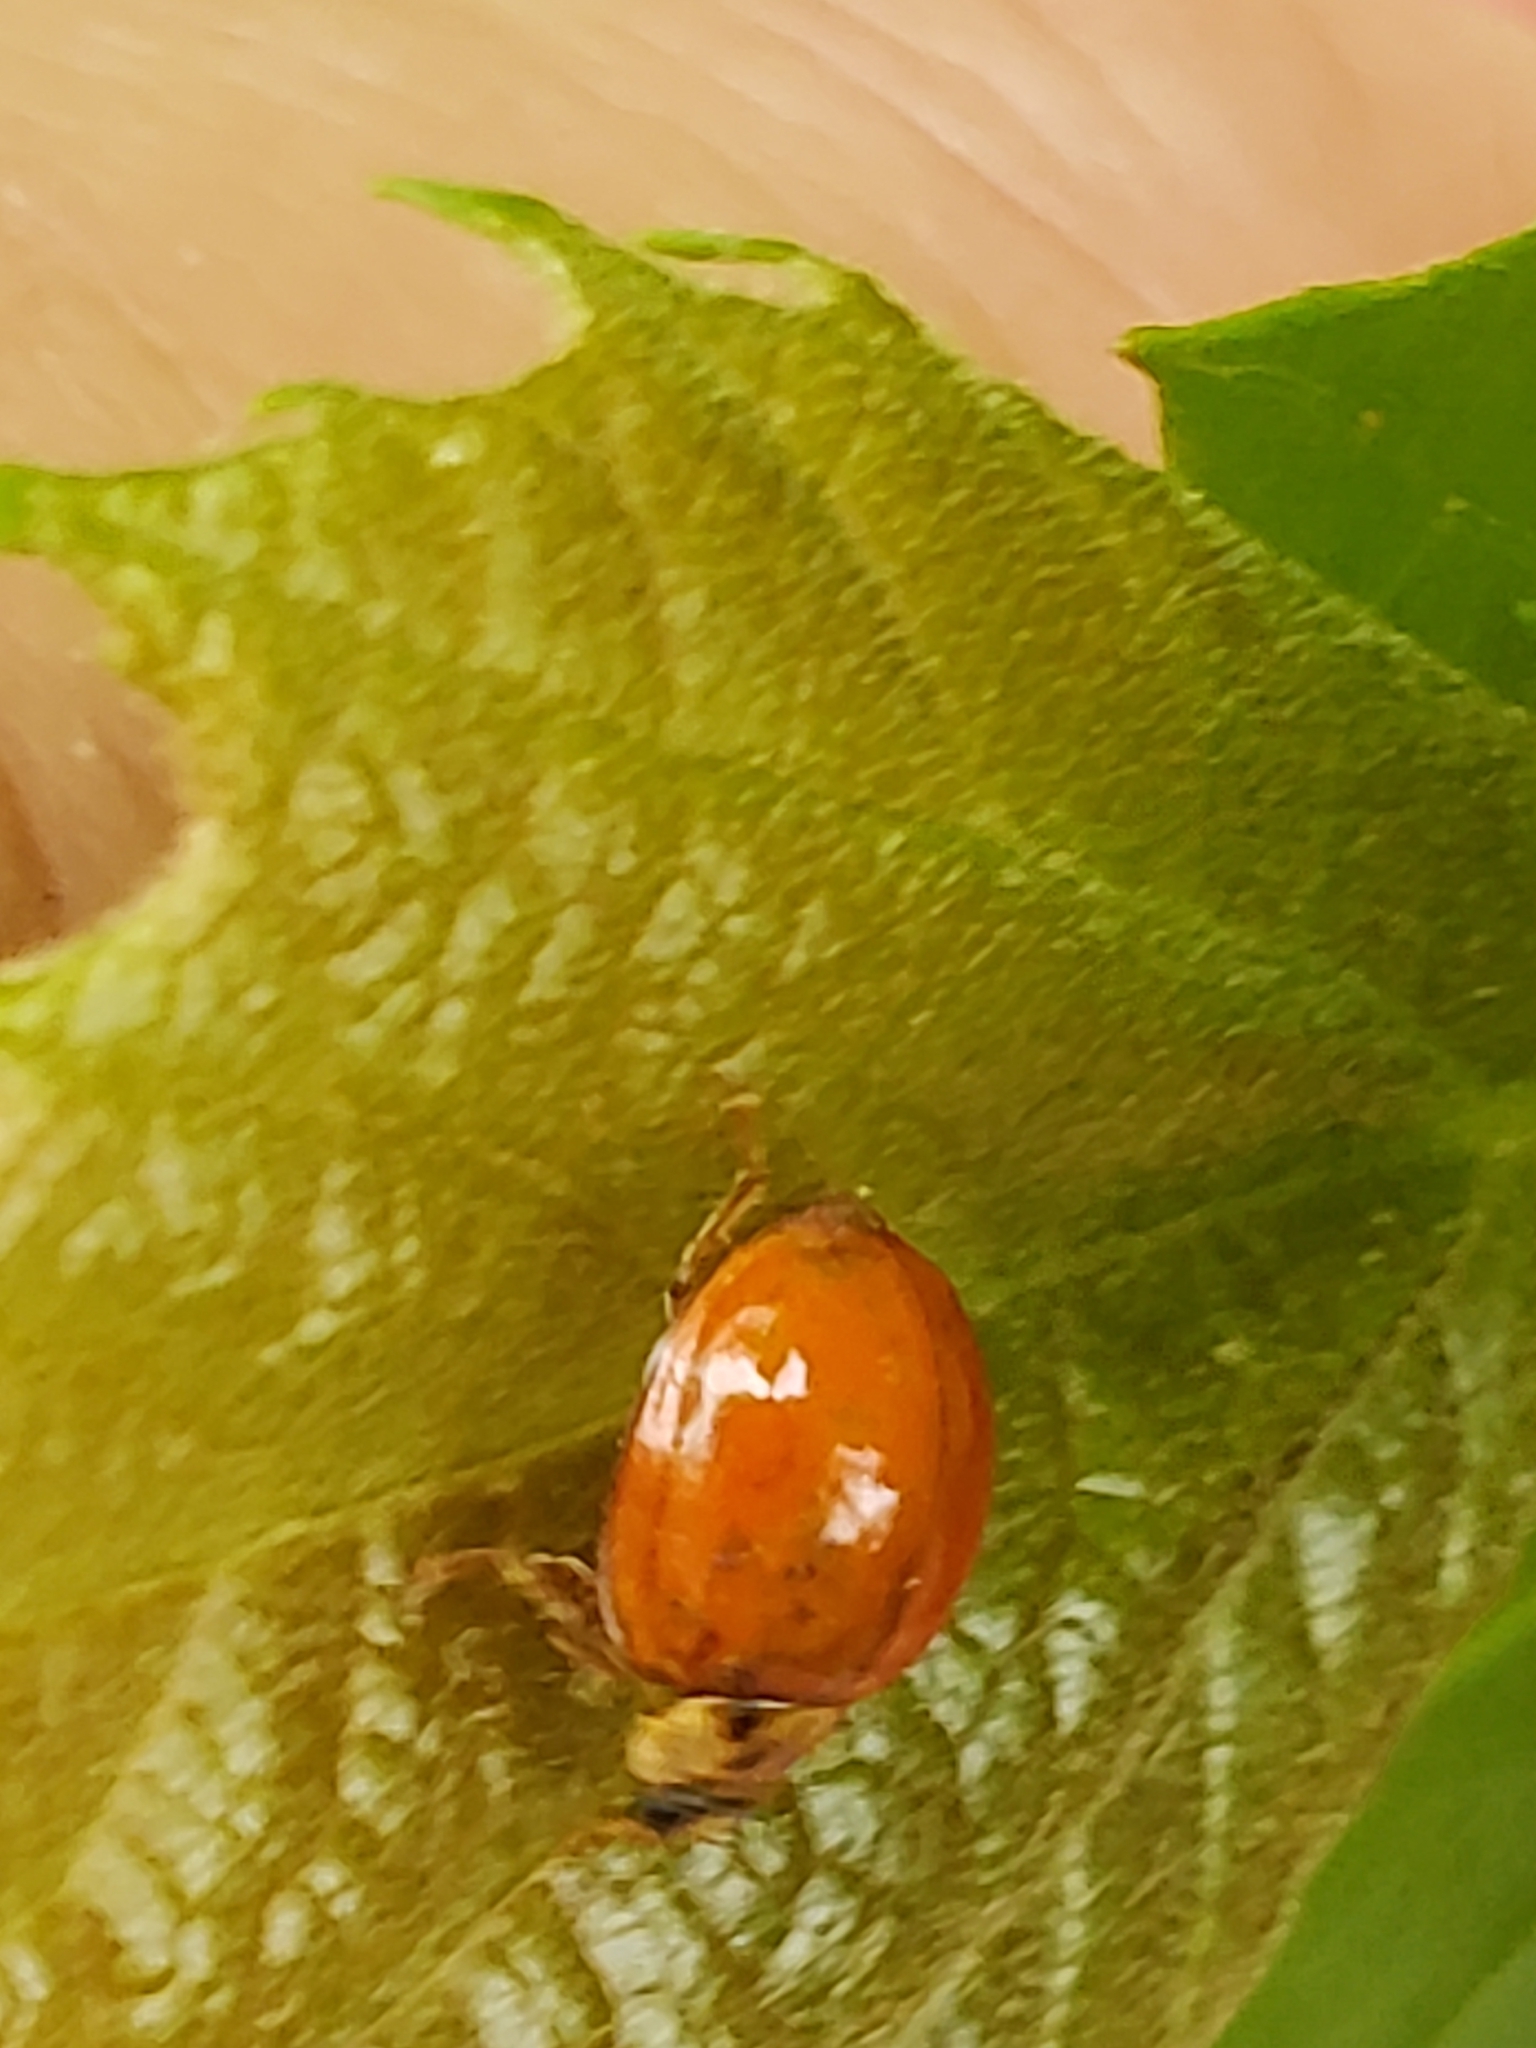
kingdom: Animalia
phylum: Arthropoda
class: Insecta
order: Coleoptera
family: Coccinellidae
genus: Harmonia
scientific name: Harmonia axyridis
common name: Harlequin ladybird
